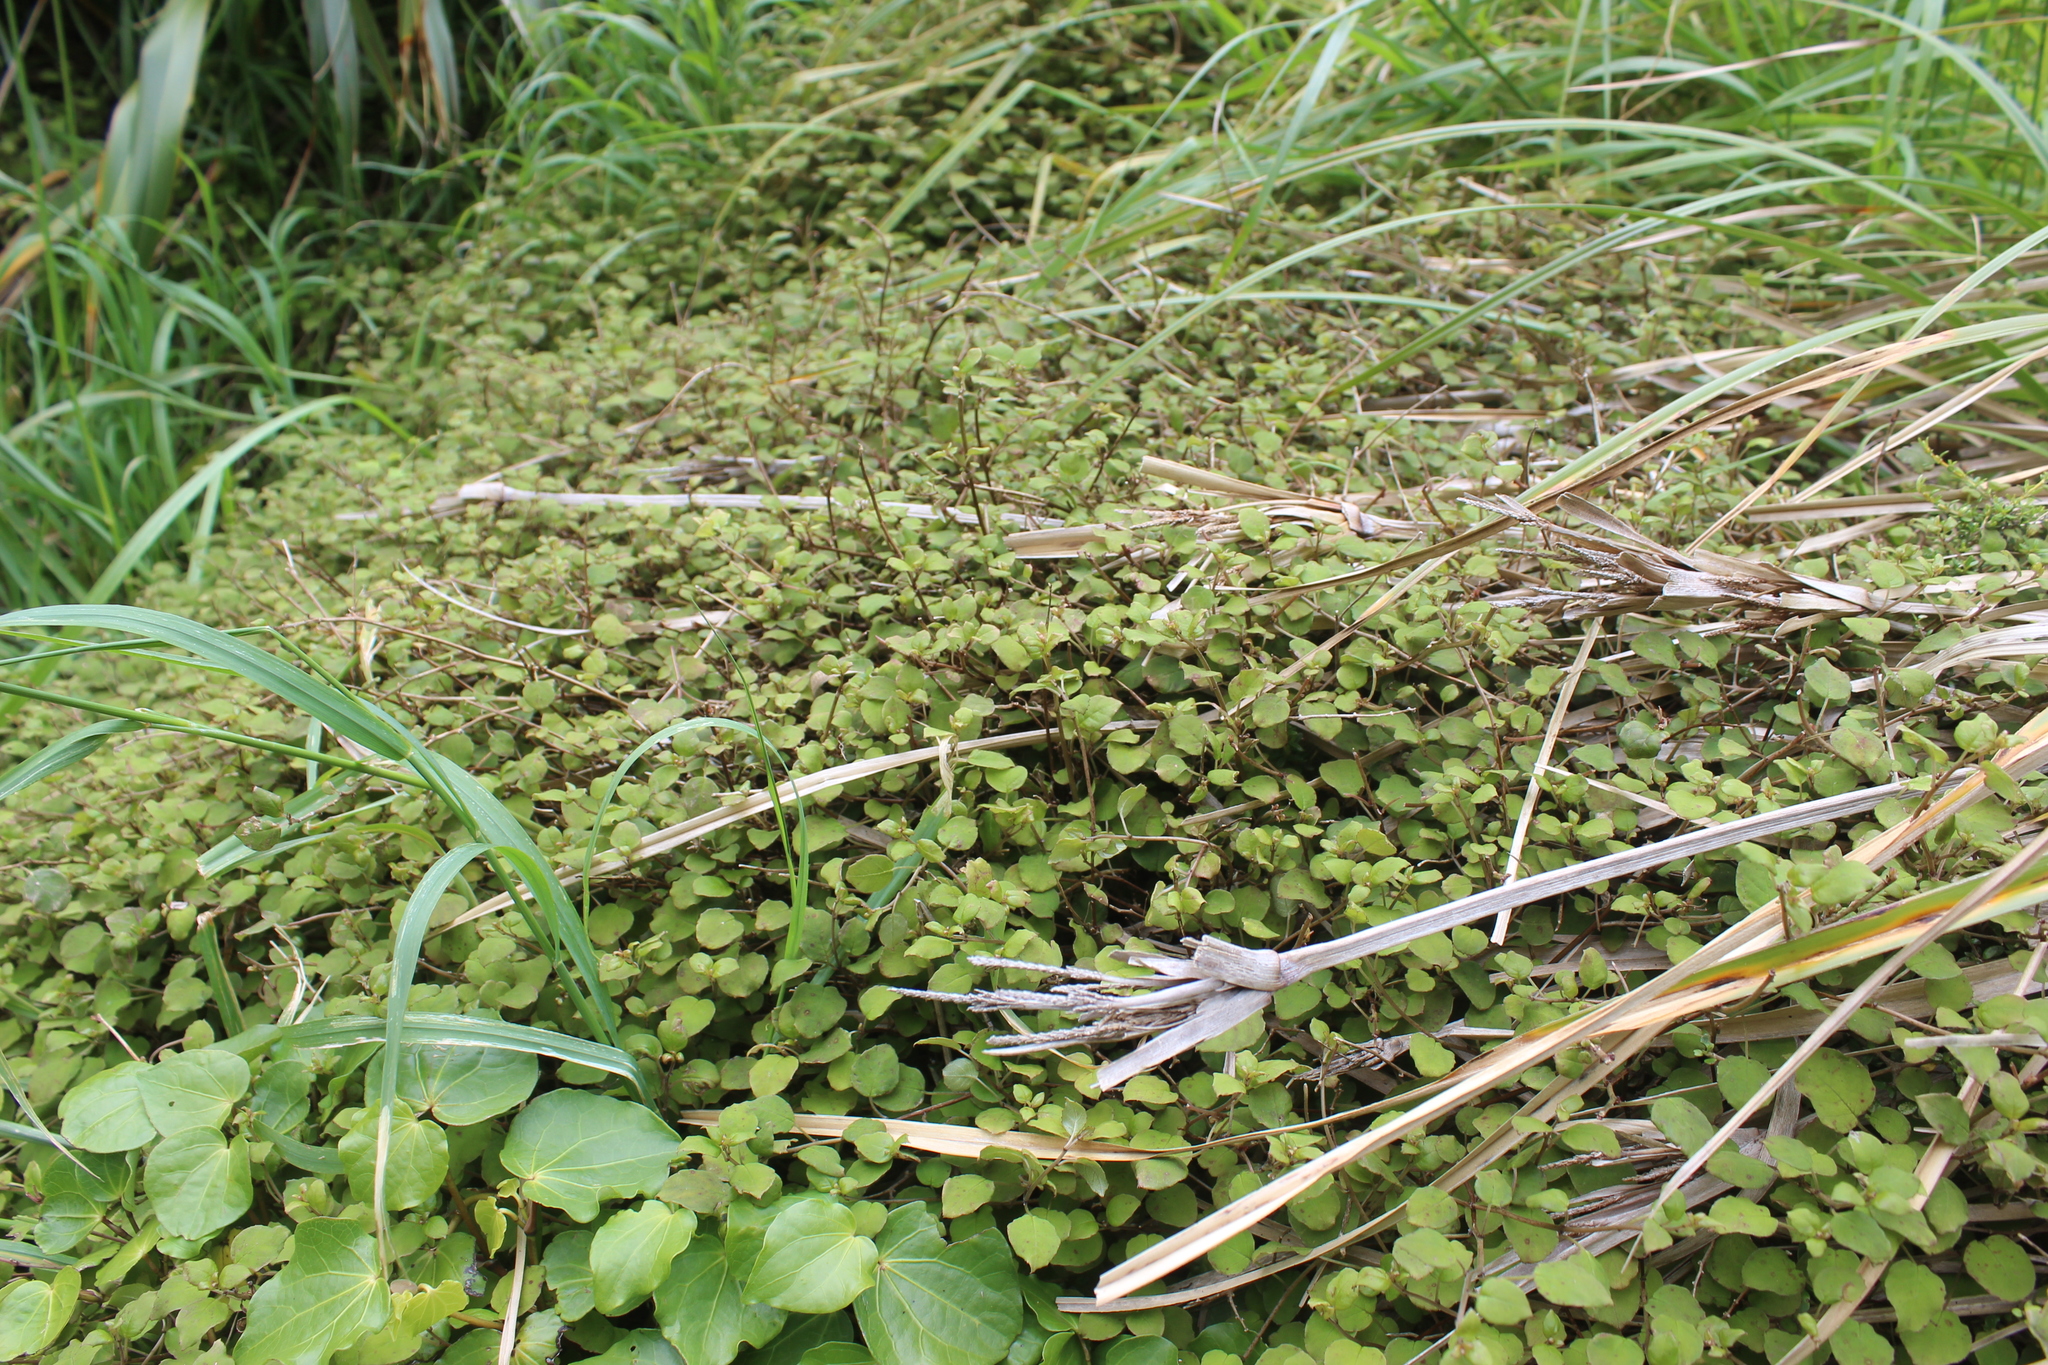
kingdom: Plantae
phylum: Tracheophyta
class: Magnoliopsida
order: Myrtales
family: Onagraceae
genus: Fuchsia
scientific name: Fuchsia perscandens
